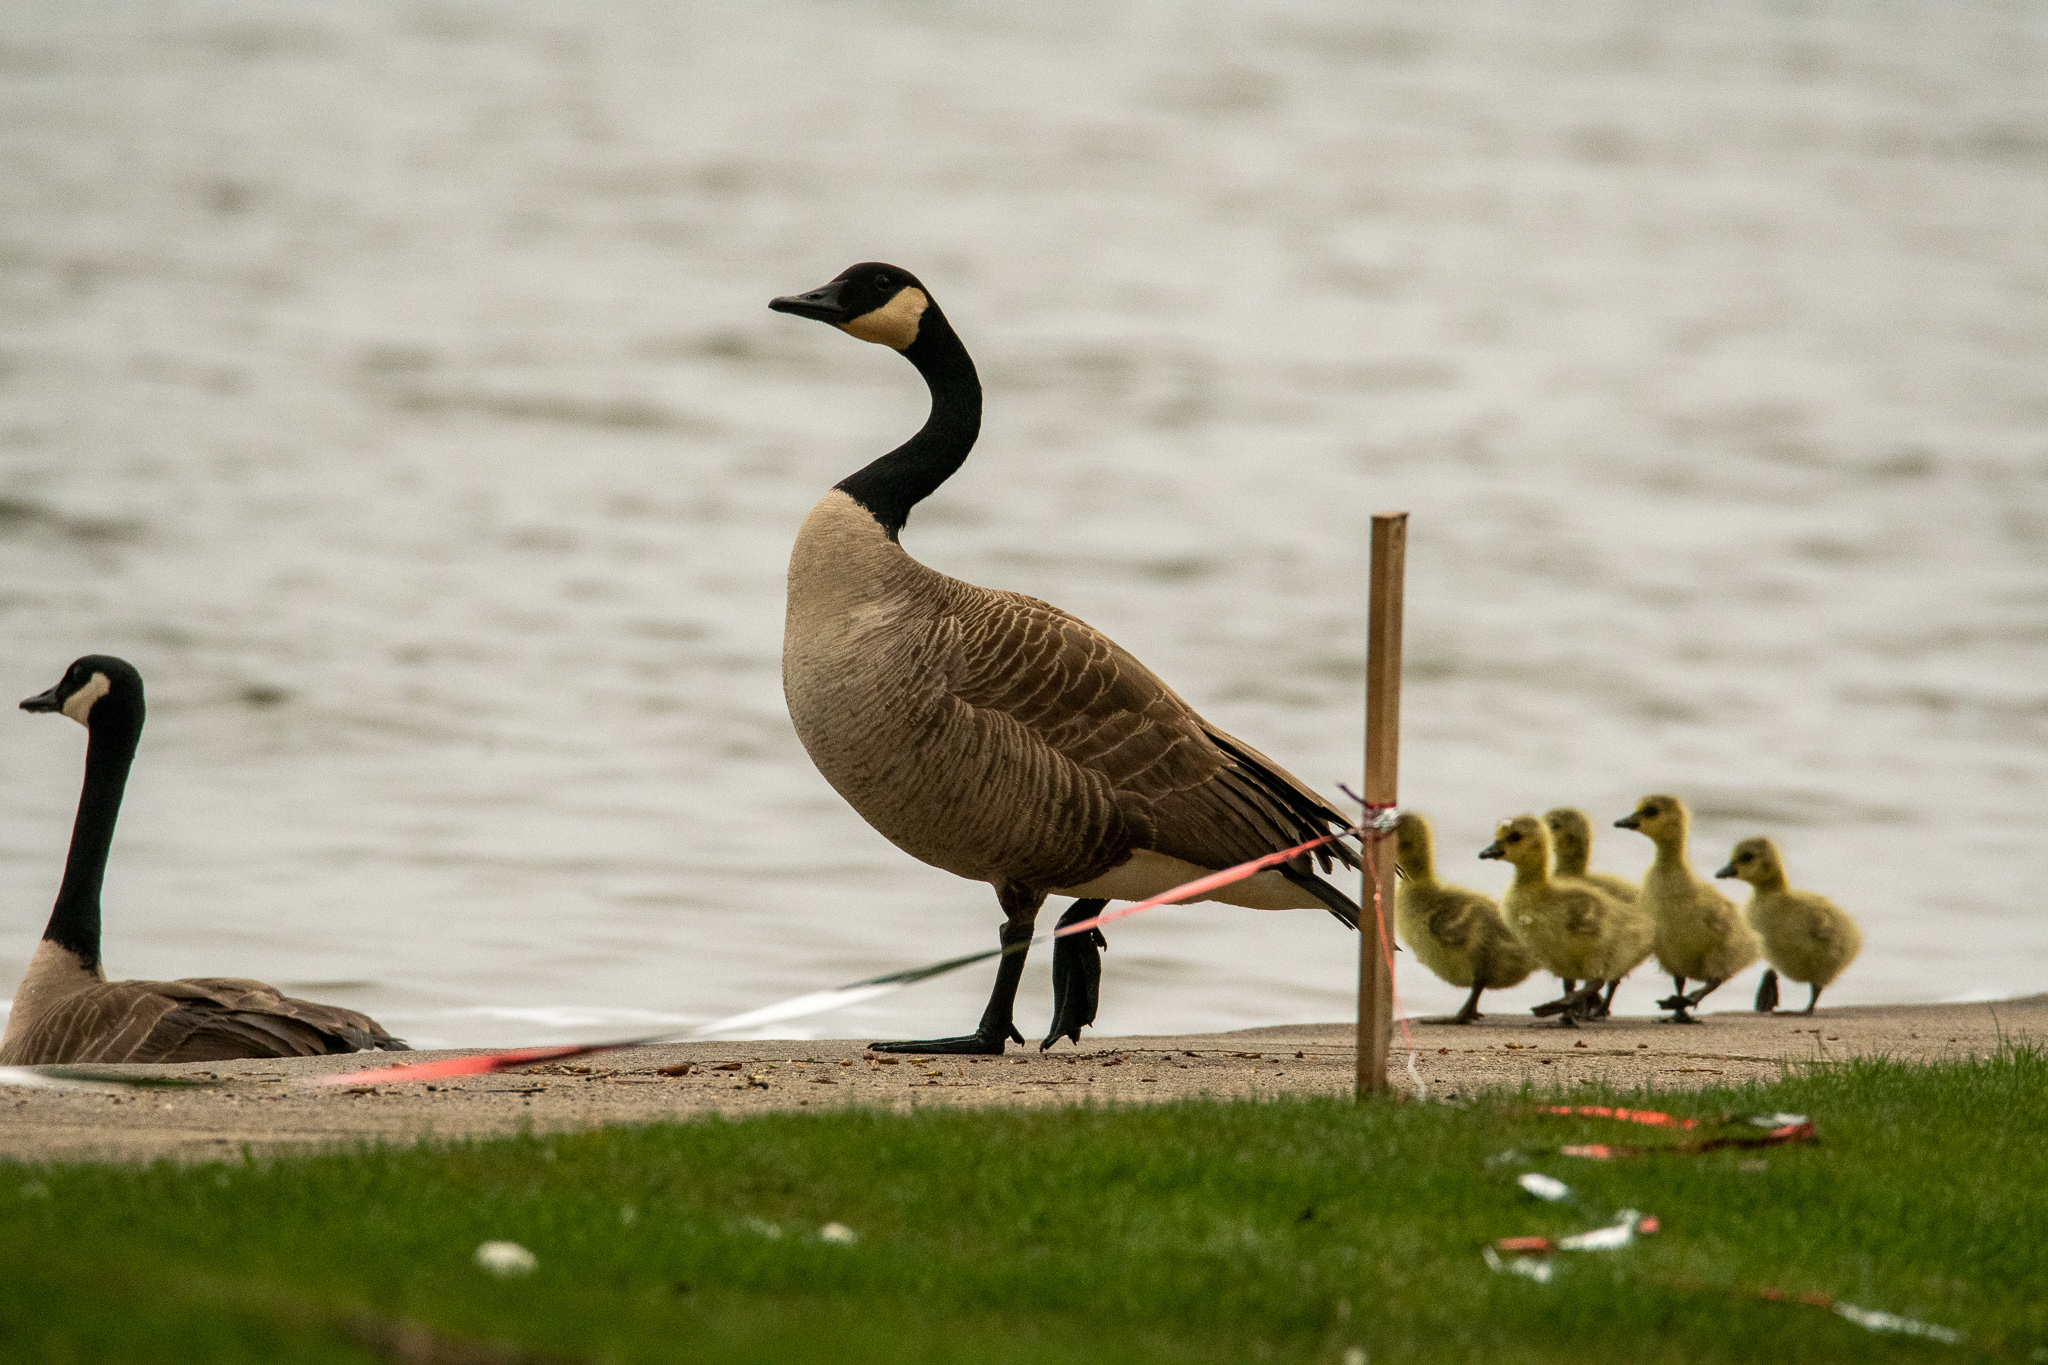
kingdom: Animalia
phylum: Chordata
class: Aves
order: Anseriformes
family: Anatidae
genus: Branta
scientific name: Branta canadensis
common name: Canada goose
